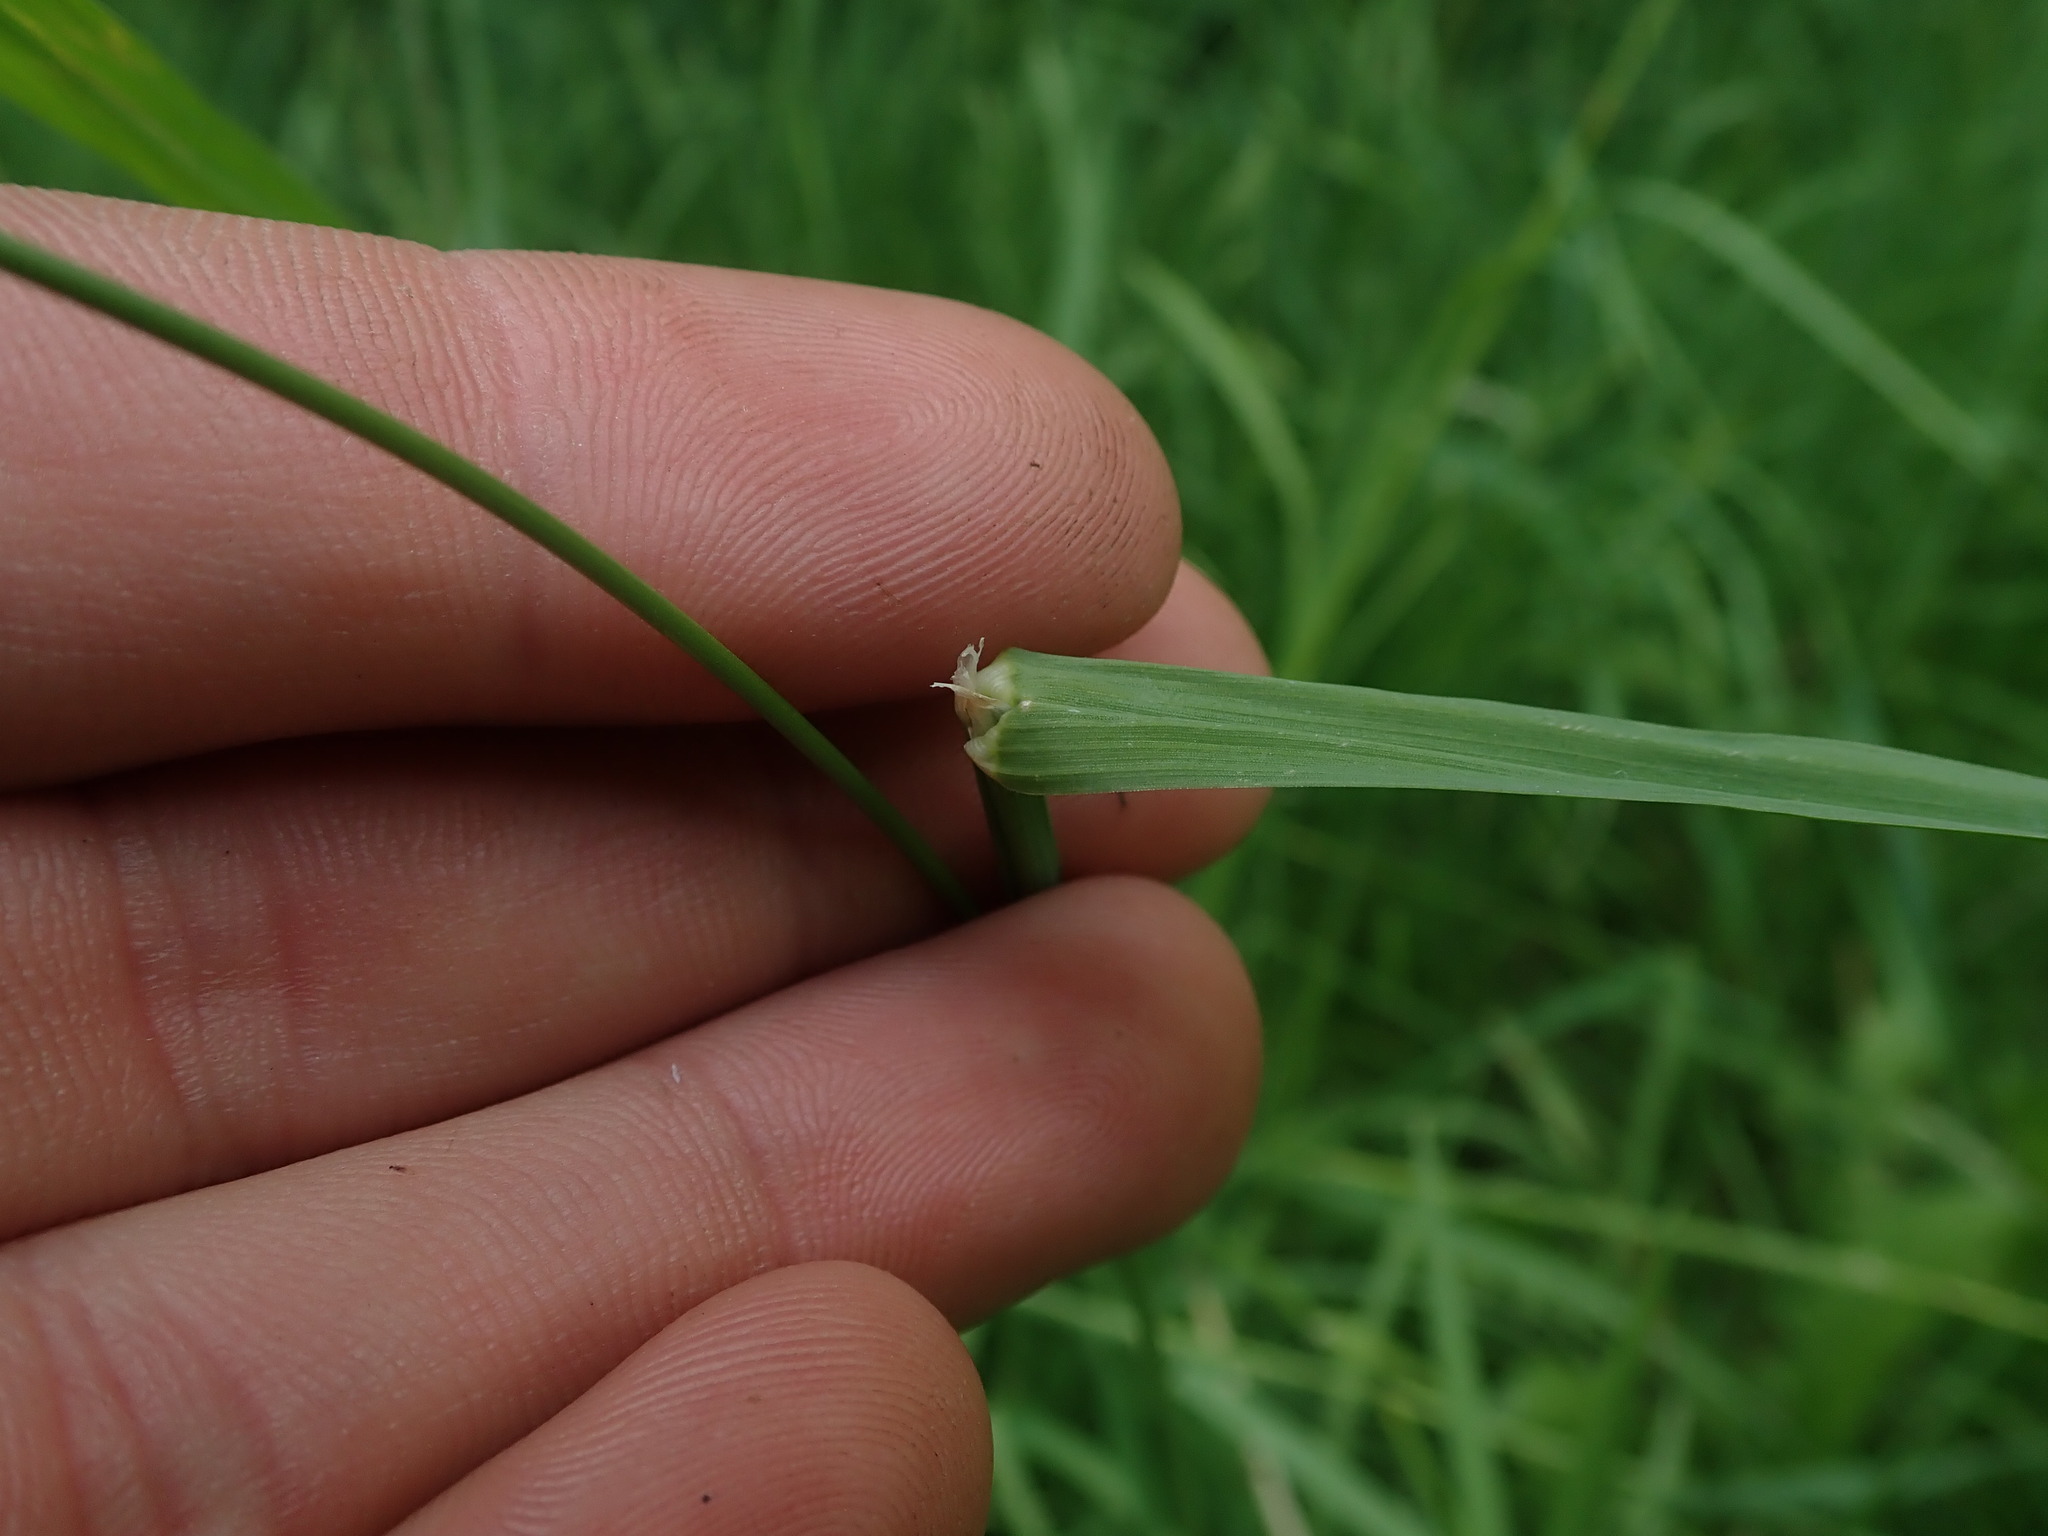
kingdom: Plantae
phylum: Tracheophyta
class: Liliopsida
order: Poales
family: Poaceae
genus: Dactylis
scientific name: Dactylis glomerata
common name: Orchardgrass
